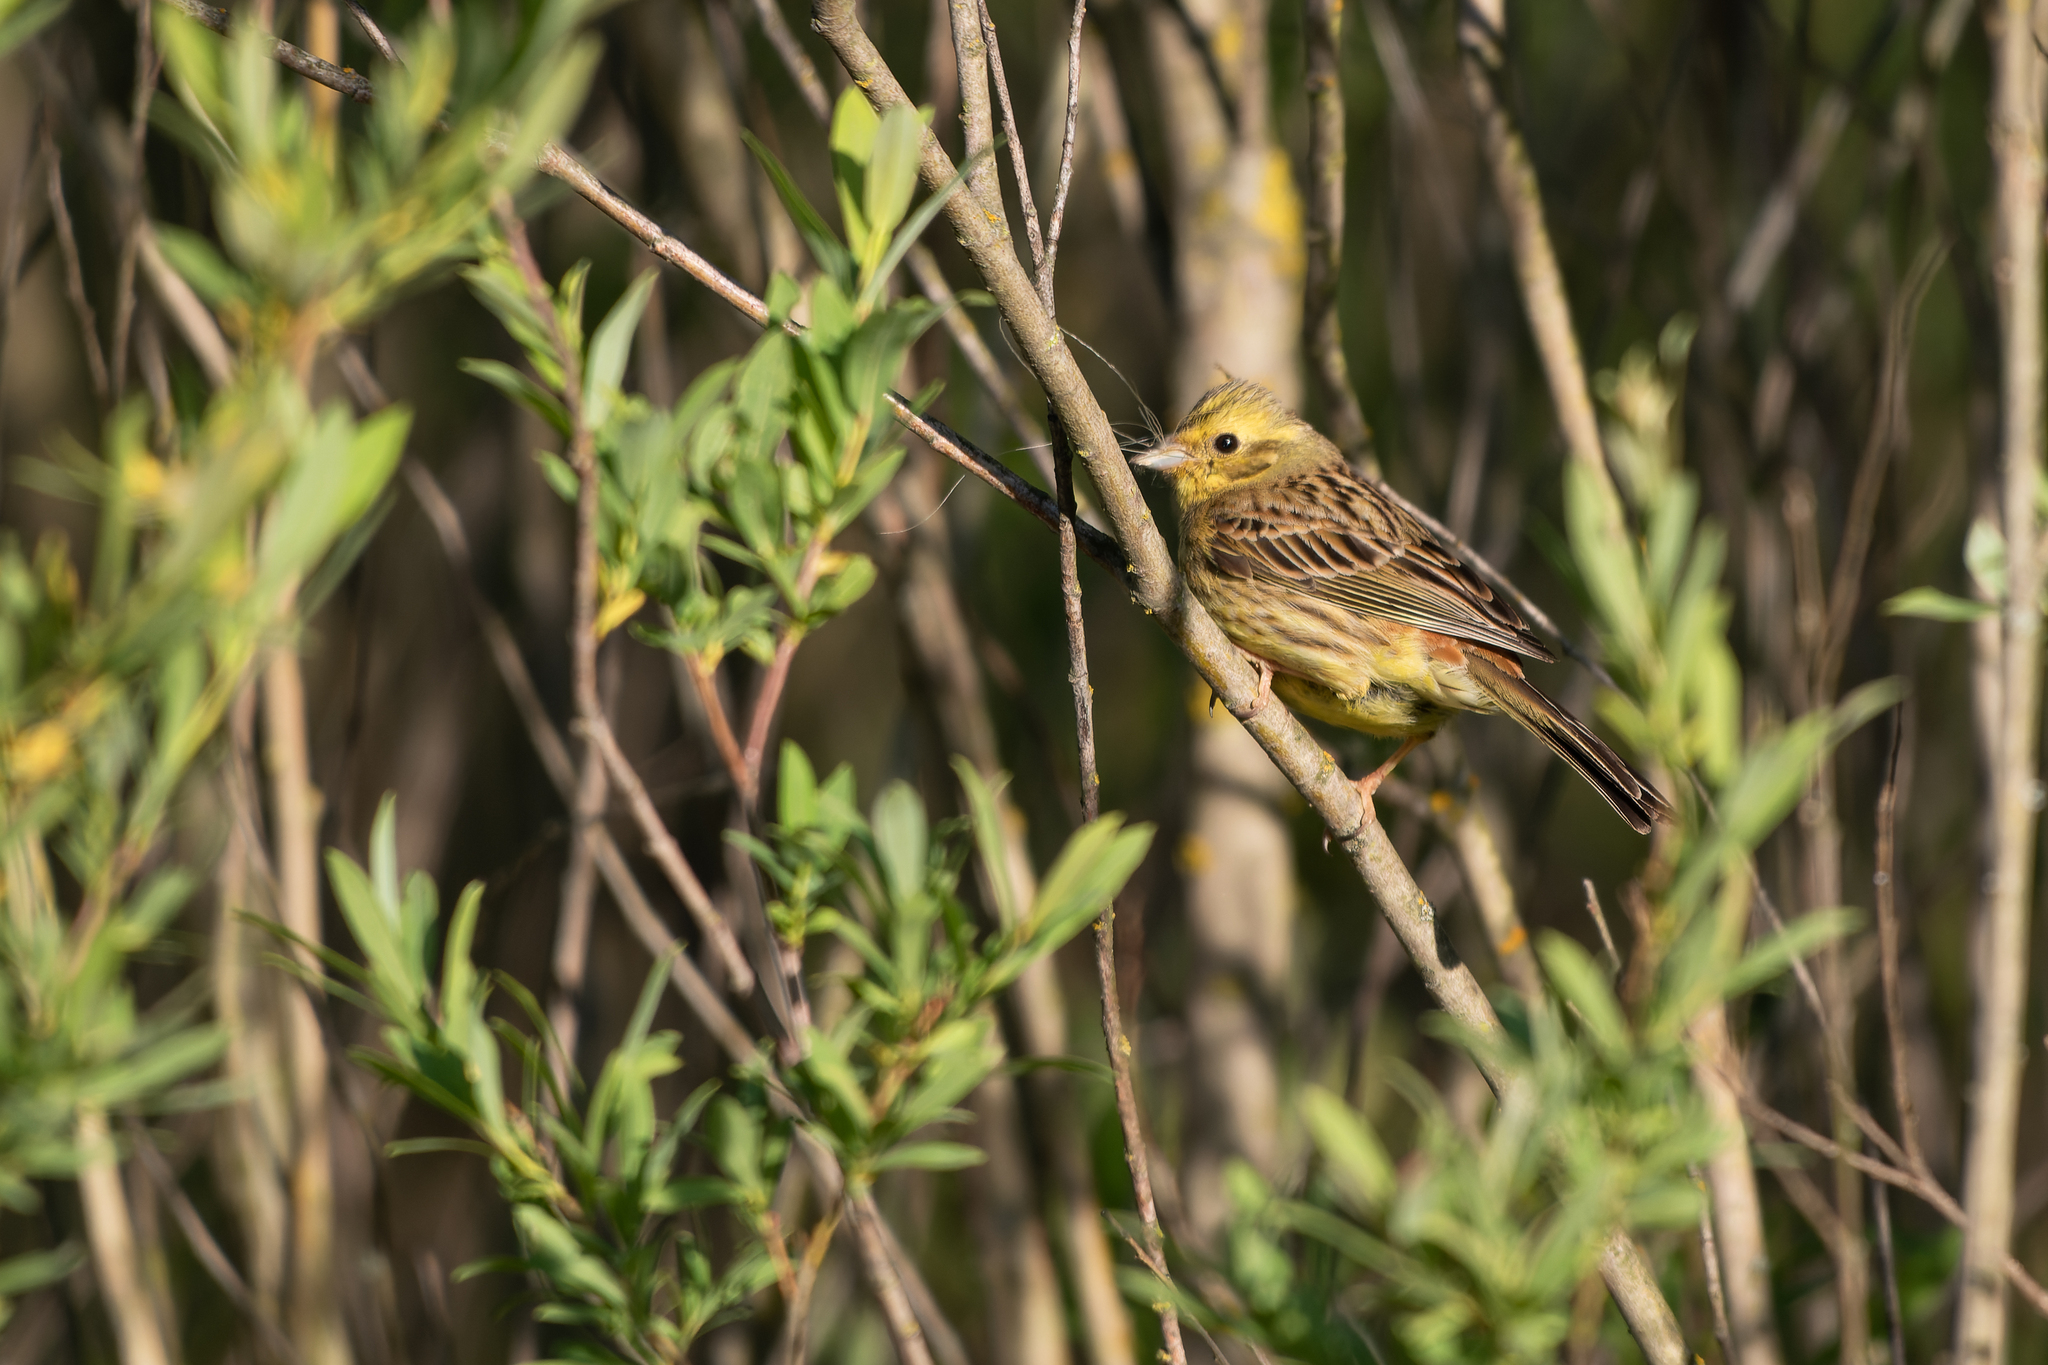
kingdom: Animalia
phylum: Chordata
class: Aves
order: Passeriformes
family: Emberizidae
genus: Emberiza
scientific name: Emberiza citrinella
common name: Yellowhammer
